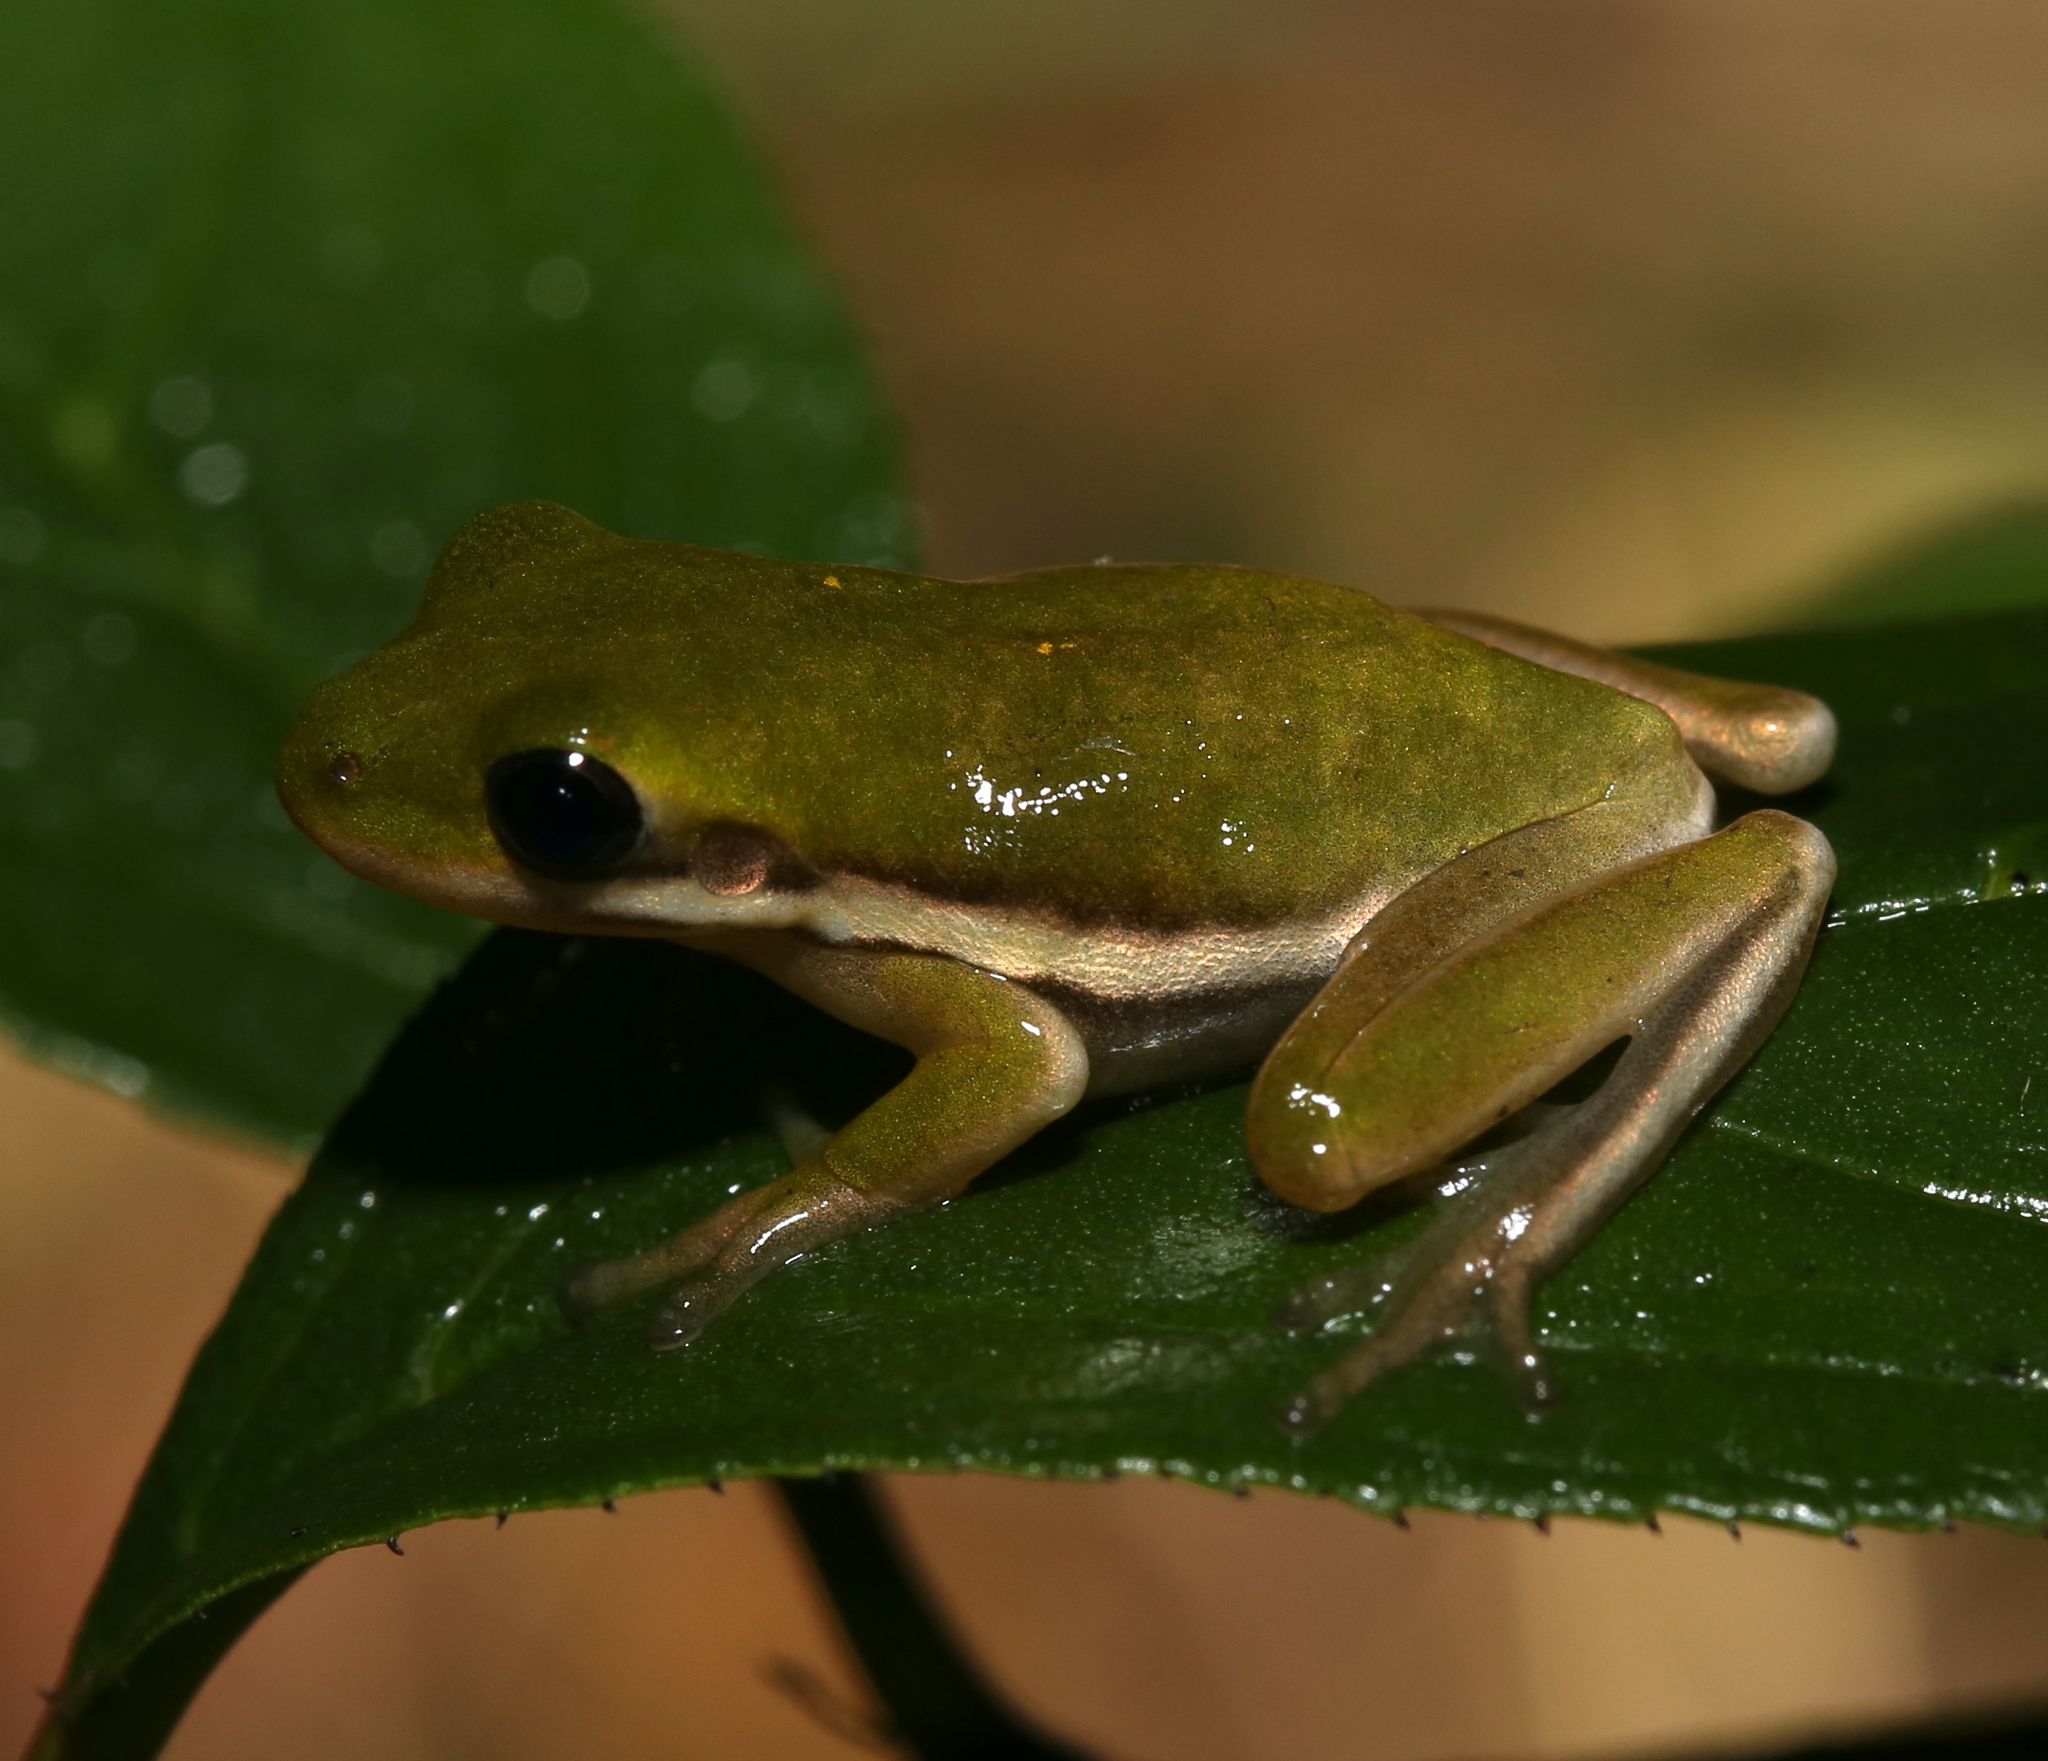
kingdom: Animalia
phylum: Chordata
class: Amphibia
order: Anura
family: Hylidae
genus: Dryophytes
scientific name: Dryophytes cinereus
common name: Green treefrog
